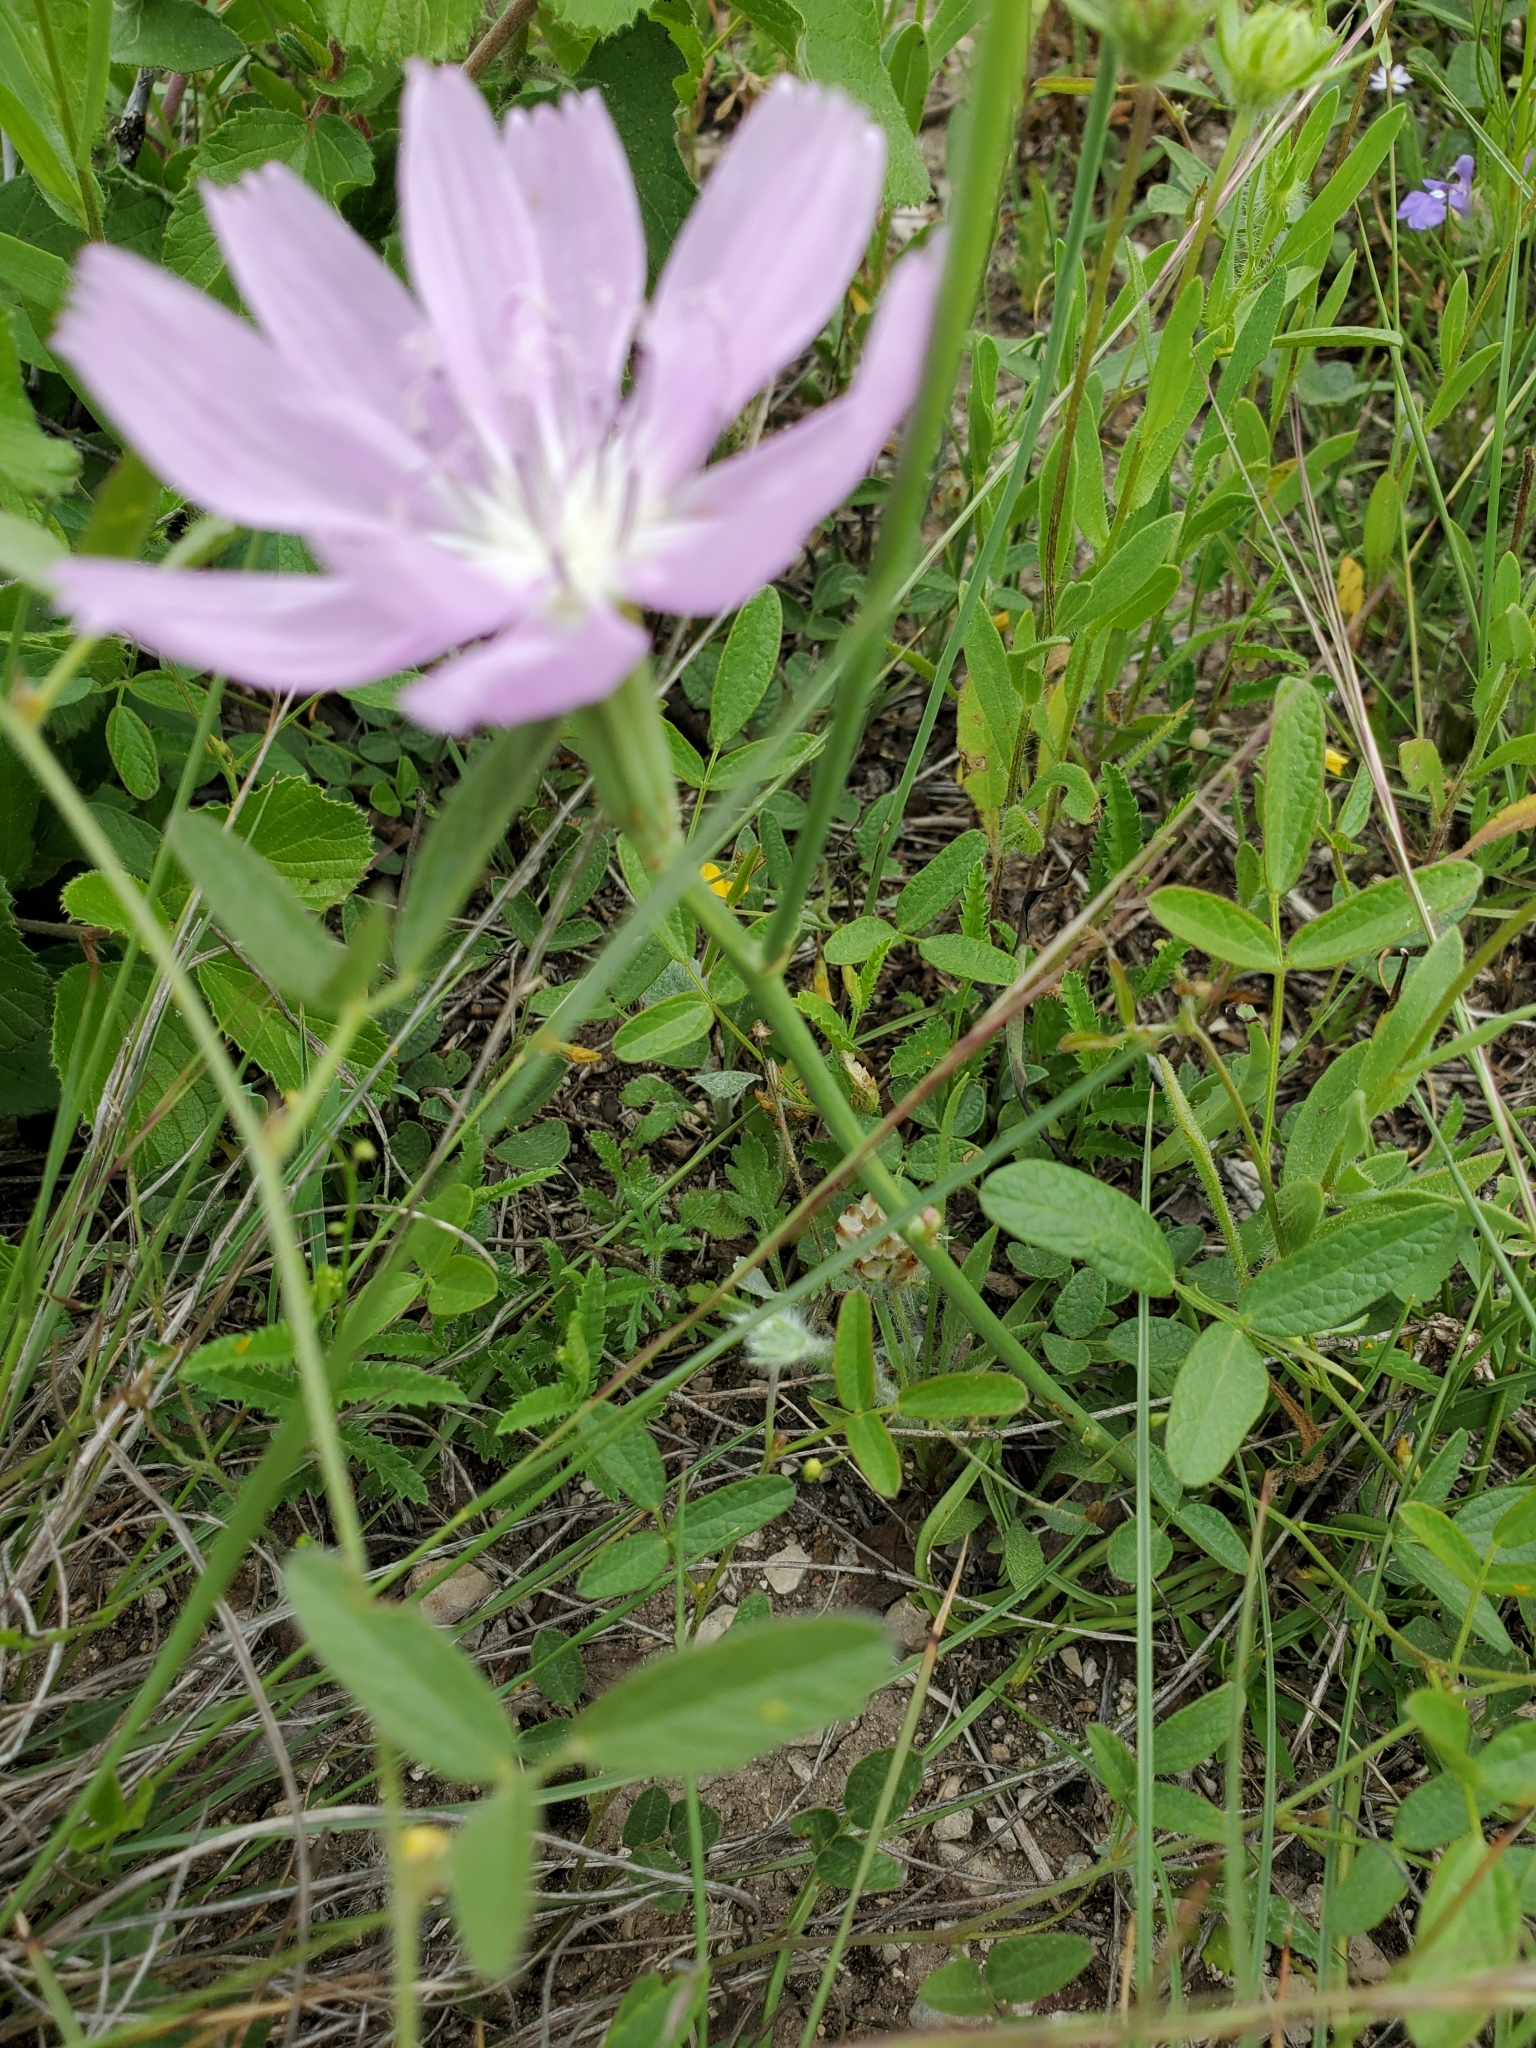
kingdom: Plantae
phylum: Tracheophyta
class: Magnoliopsida
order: Asterales
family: Asteraceae
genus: Lygodesmia
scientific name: Lygodesmia texana
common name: Texas skeleton-plant
